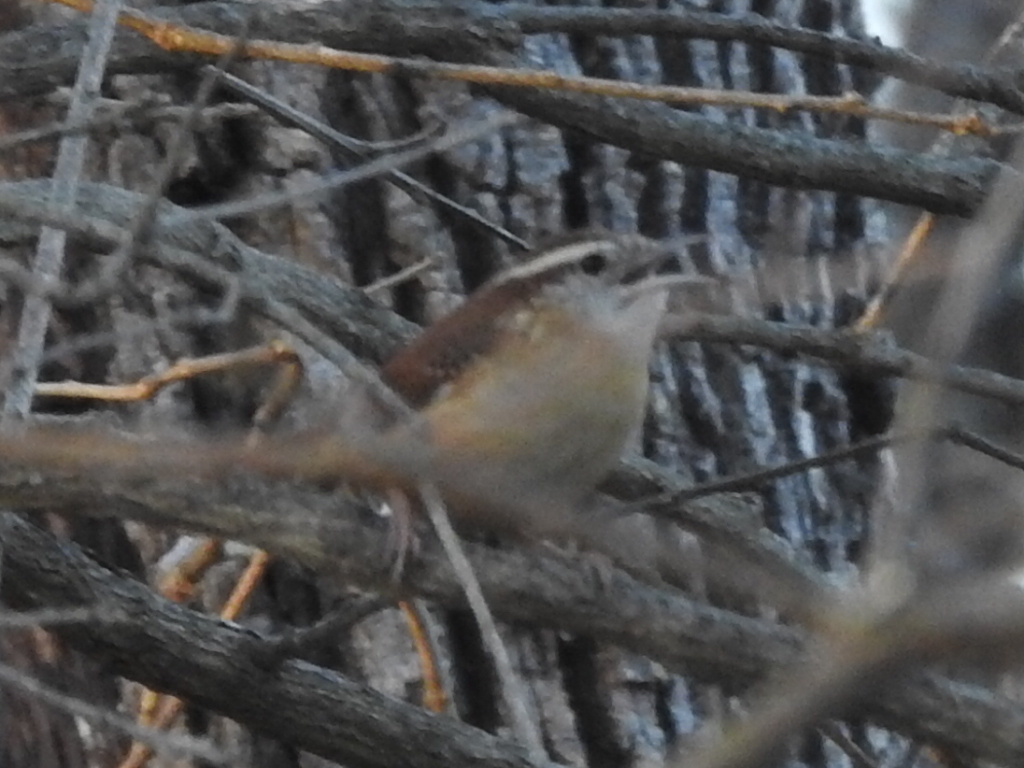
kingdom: Animalia
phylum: Chordata
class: Aves
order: Passeriformes
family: Troglodytidae
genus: Thryothorus
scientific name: Thryothorus ludovicianus
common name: Carolina wren
